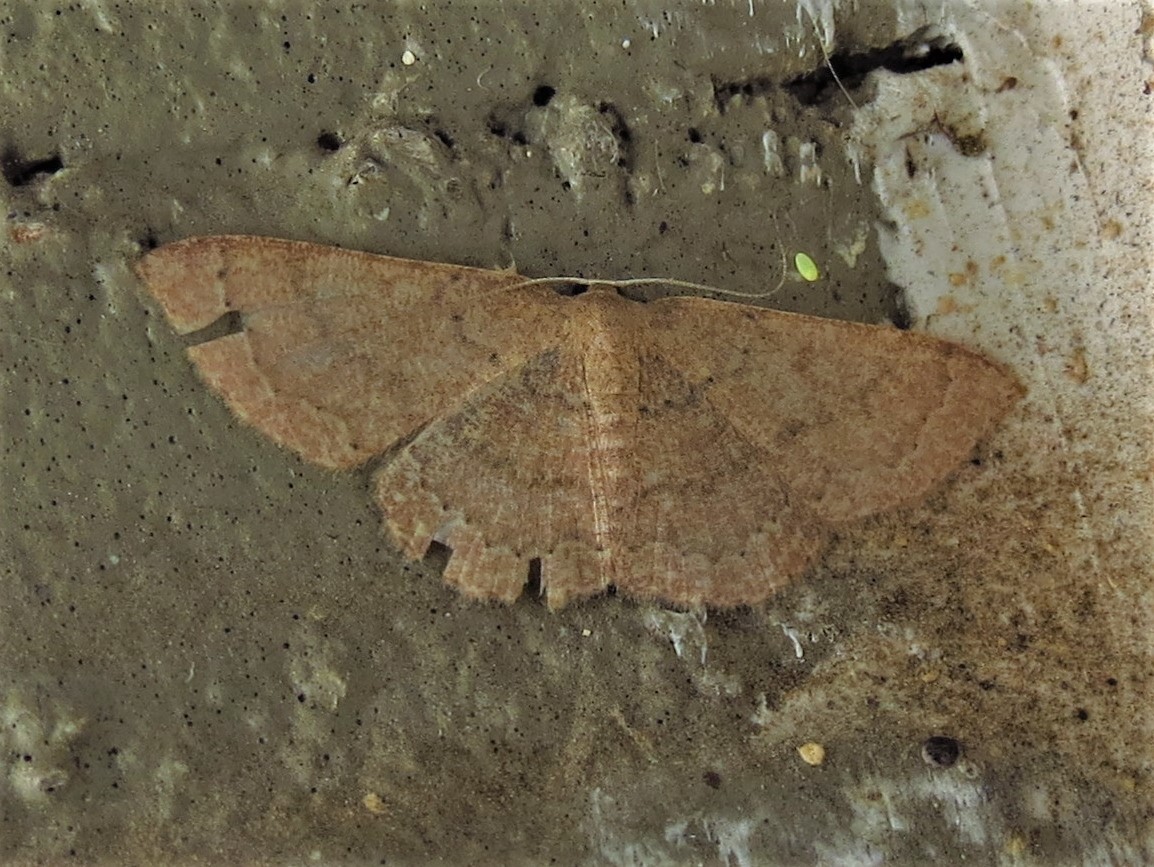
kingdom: Animalia
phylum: Arthropoda
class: Insecta
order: Lepidoptera
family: Geometridae
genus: Pleuroprucha
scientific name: Pleuroprucha insulsaria
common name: Common tan wave
